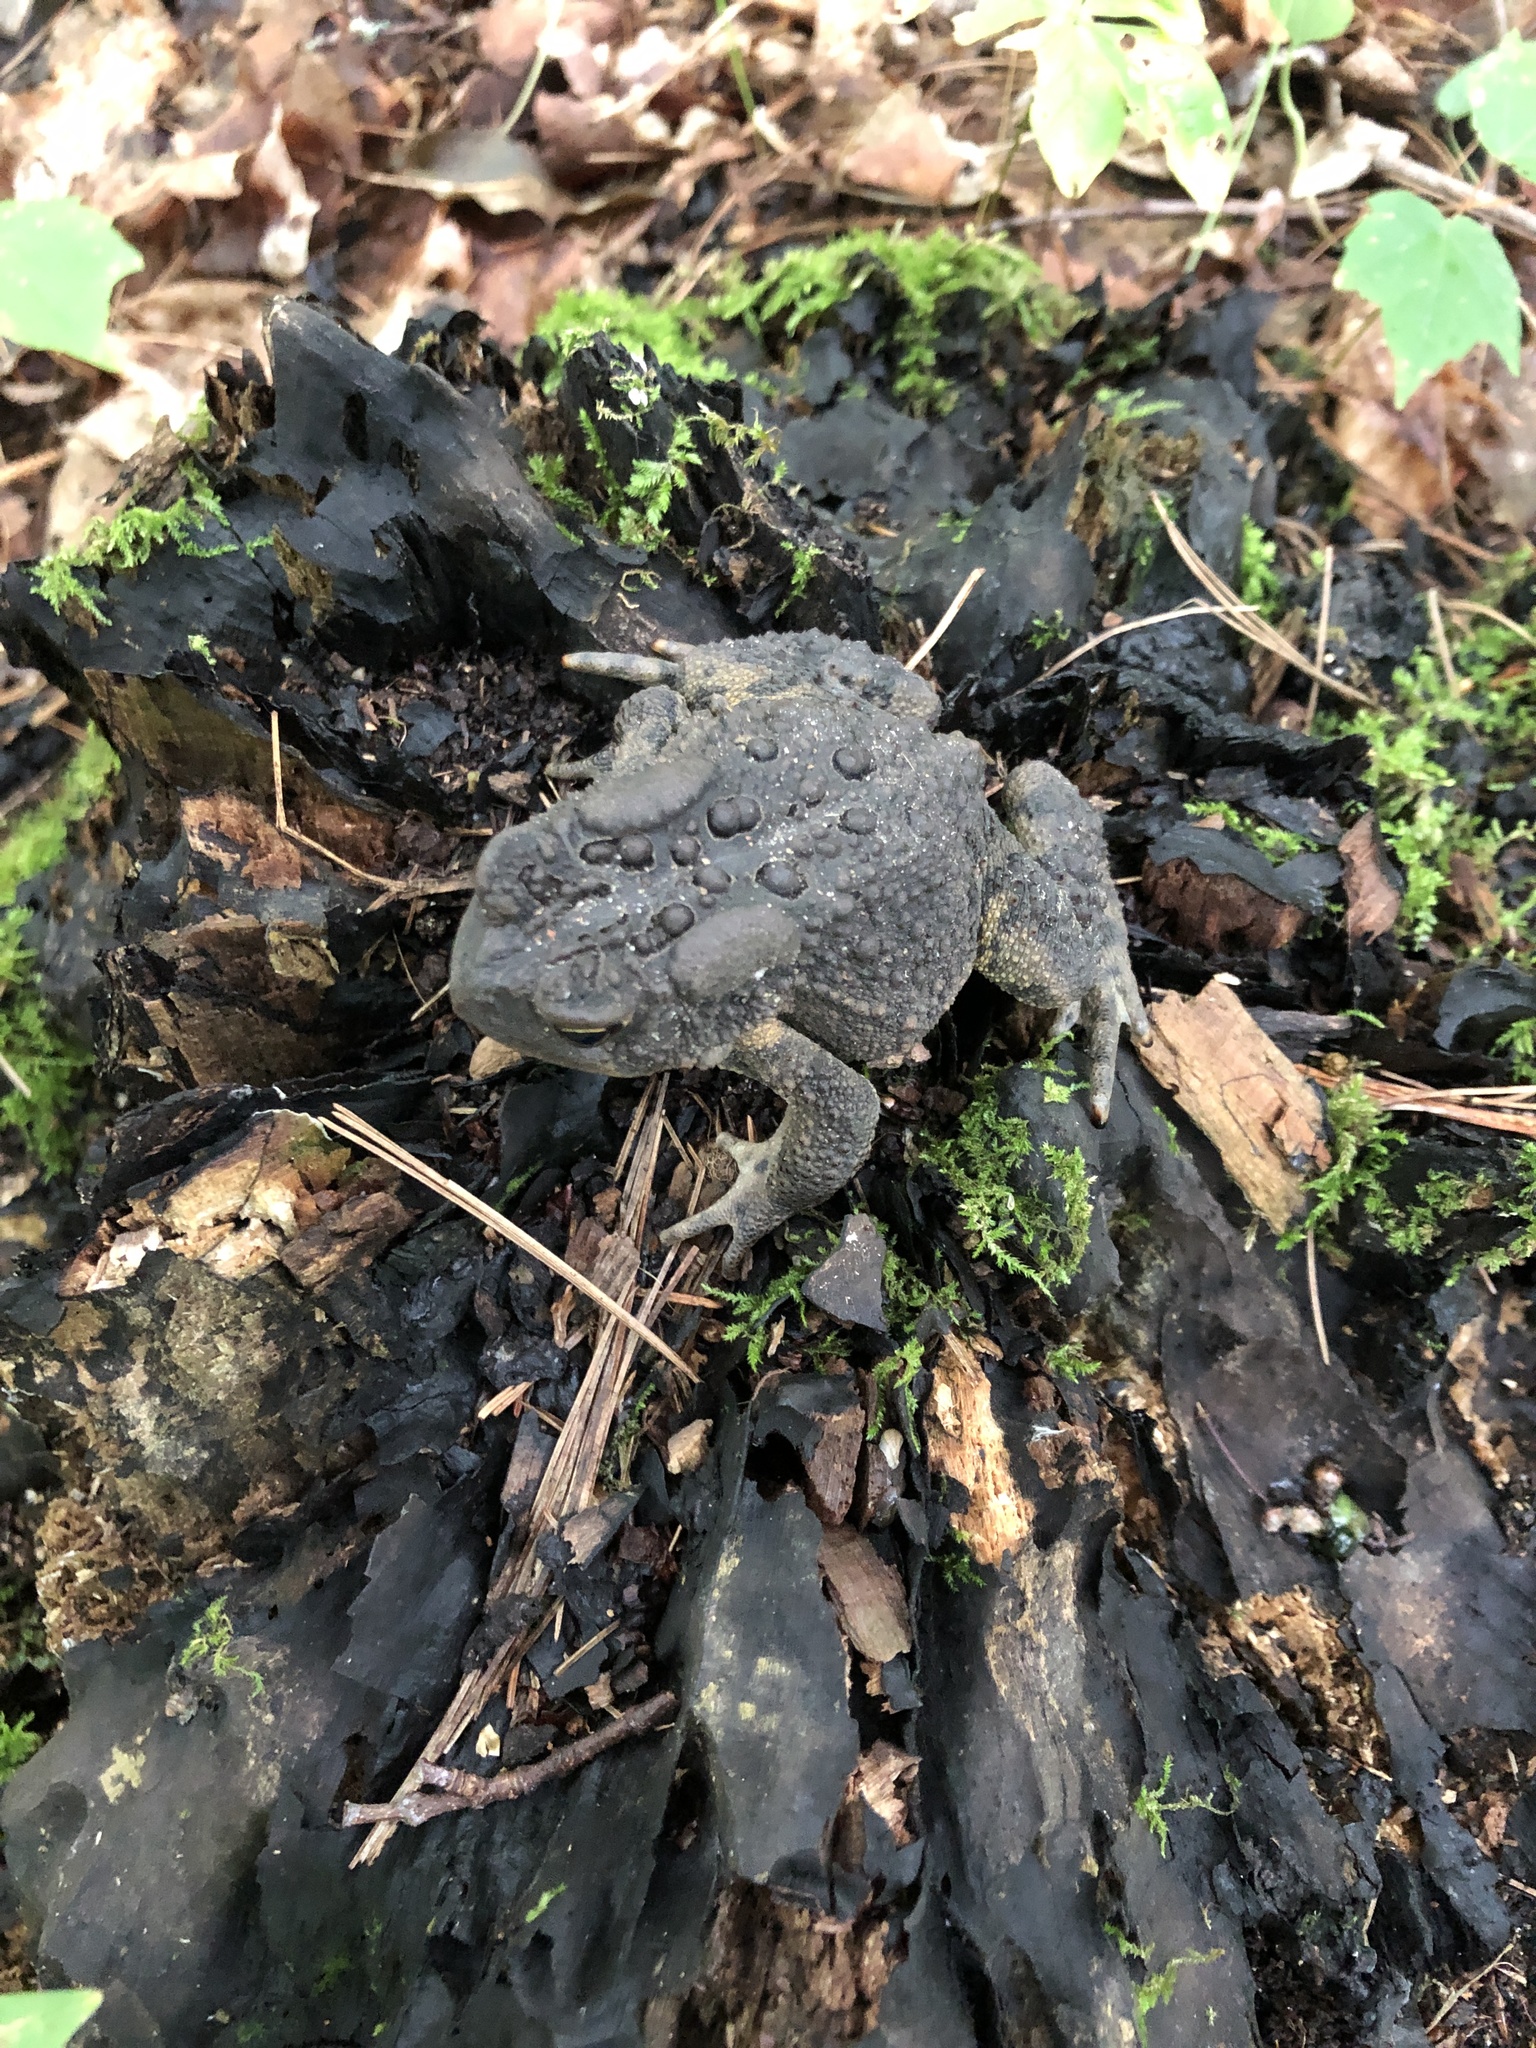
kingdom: Animalia
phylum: Chordata
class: Amphibia
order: Anura
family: Bufonidae
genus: Anaxyrus
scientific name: Anaxyrus americanus
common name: American toad
